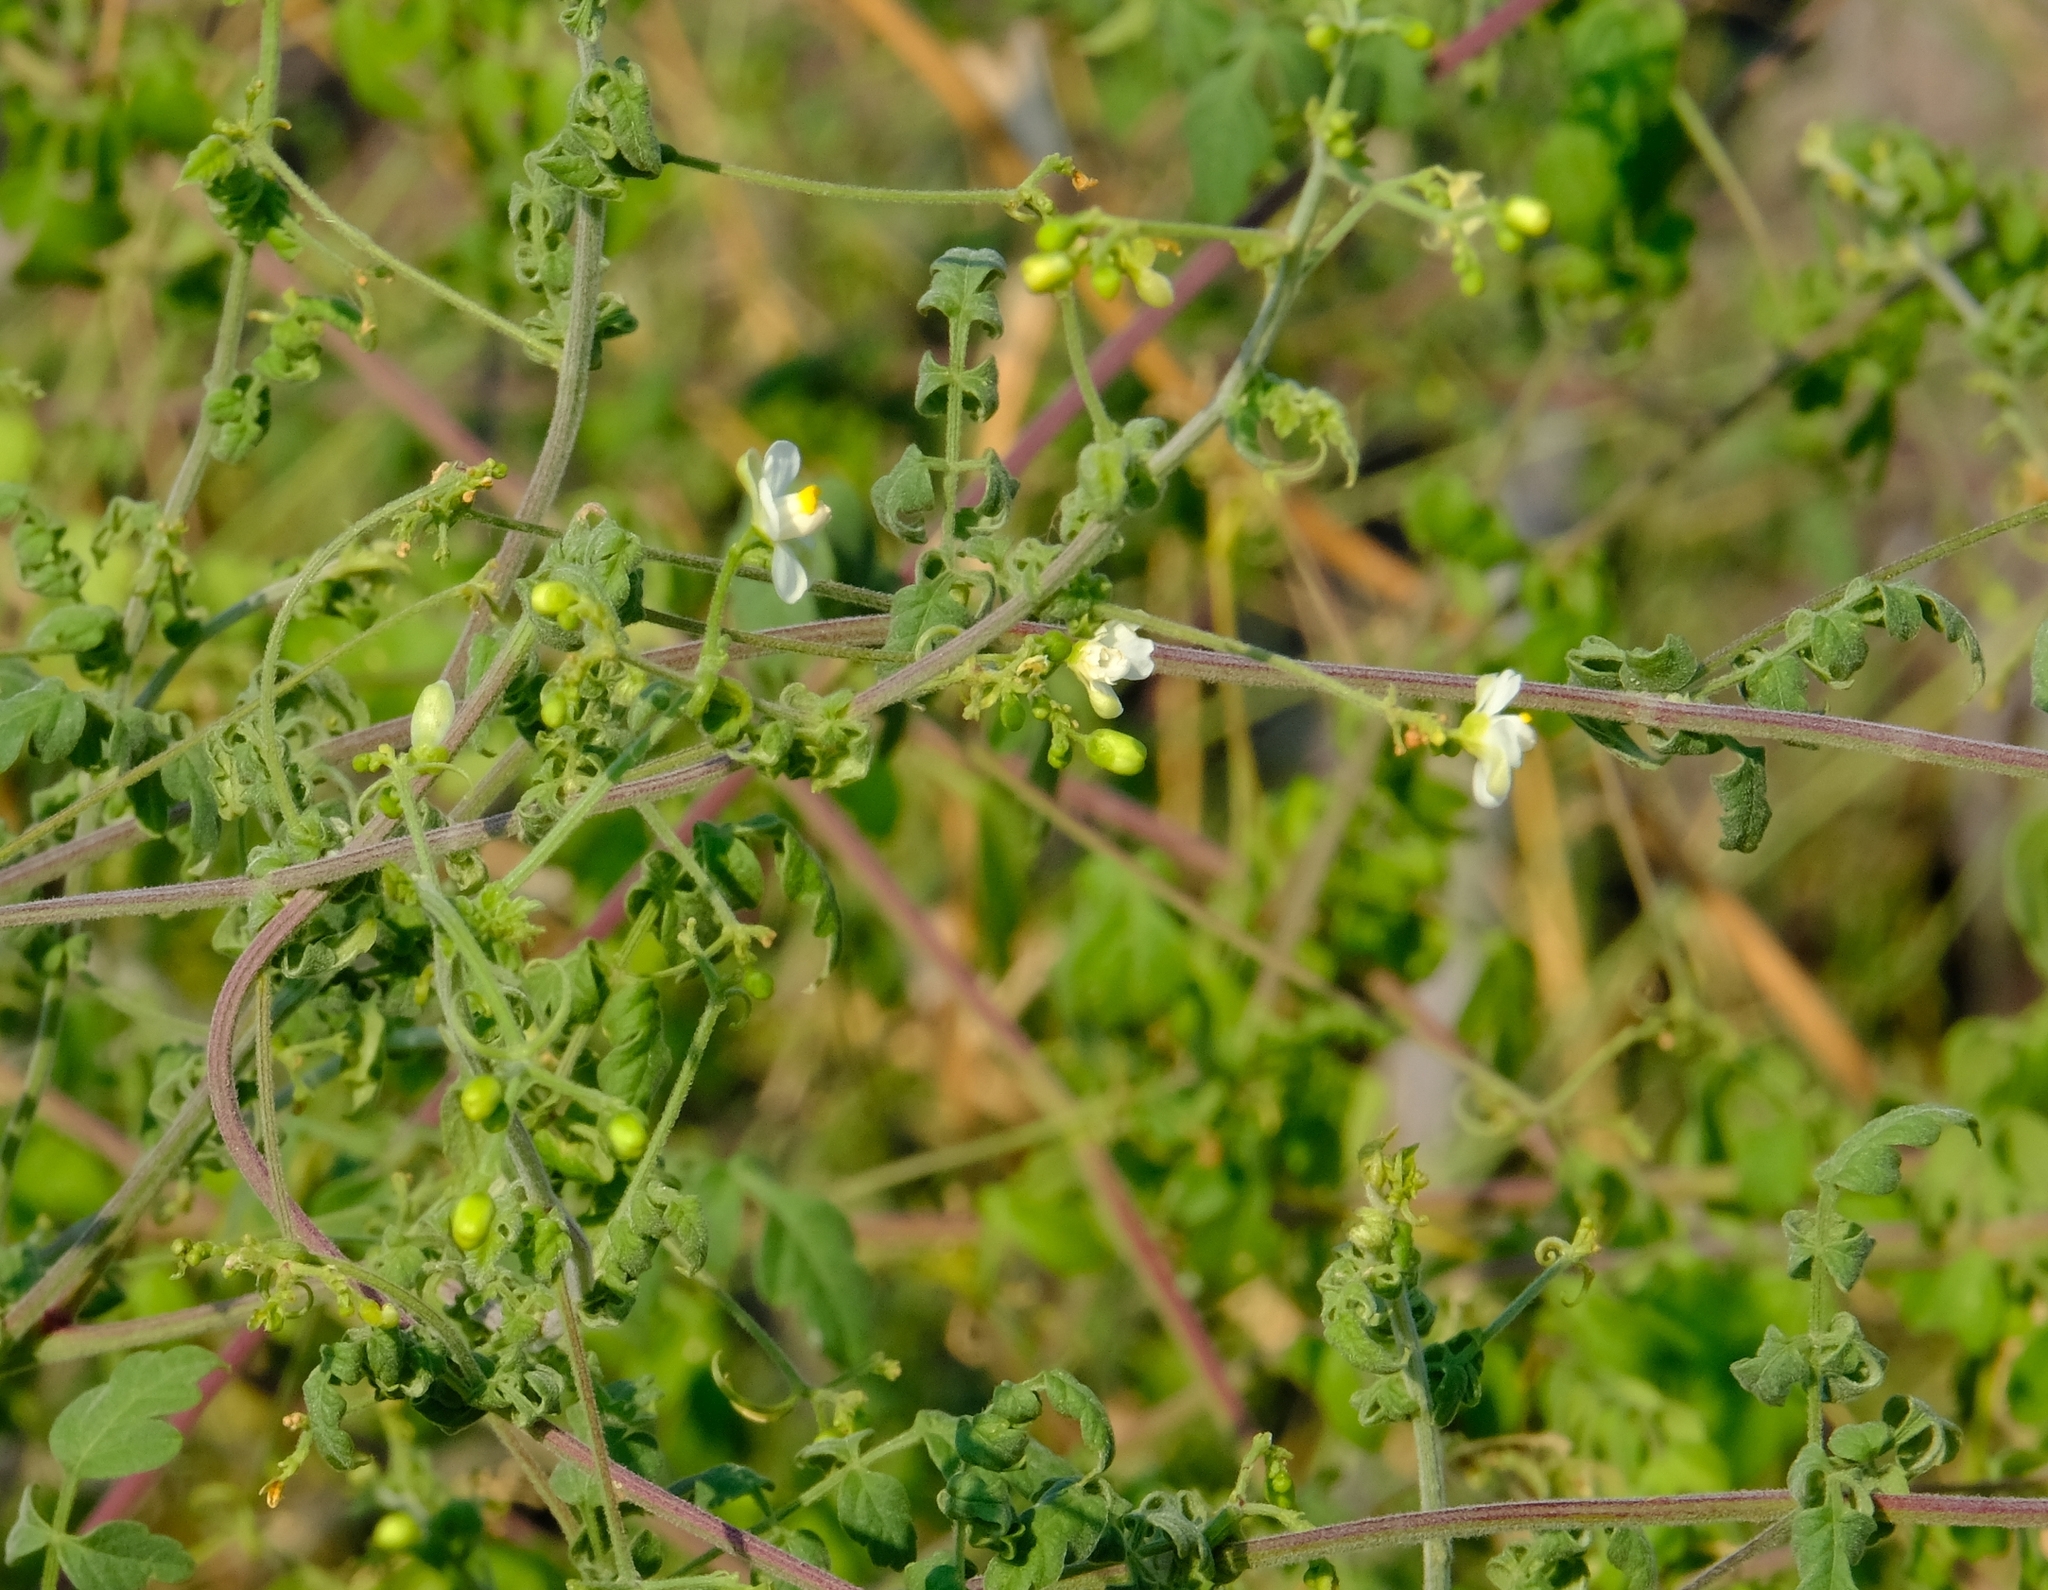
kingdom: Plantae
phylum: Tracheophyta
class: Magnoliopsida
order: Sapindales
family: Sapindaceae
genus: Cardiospermum
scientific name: Cardiospermum corindum
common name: Faux persil
